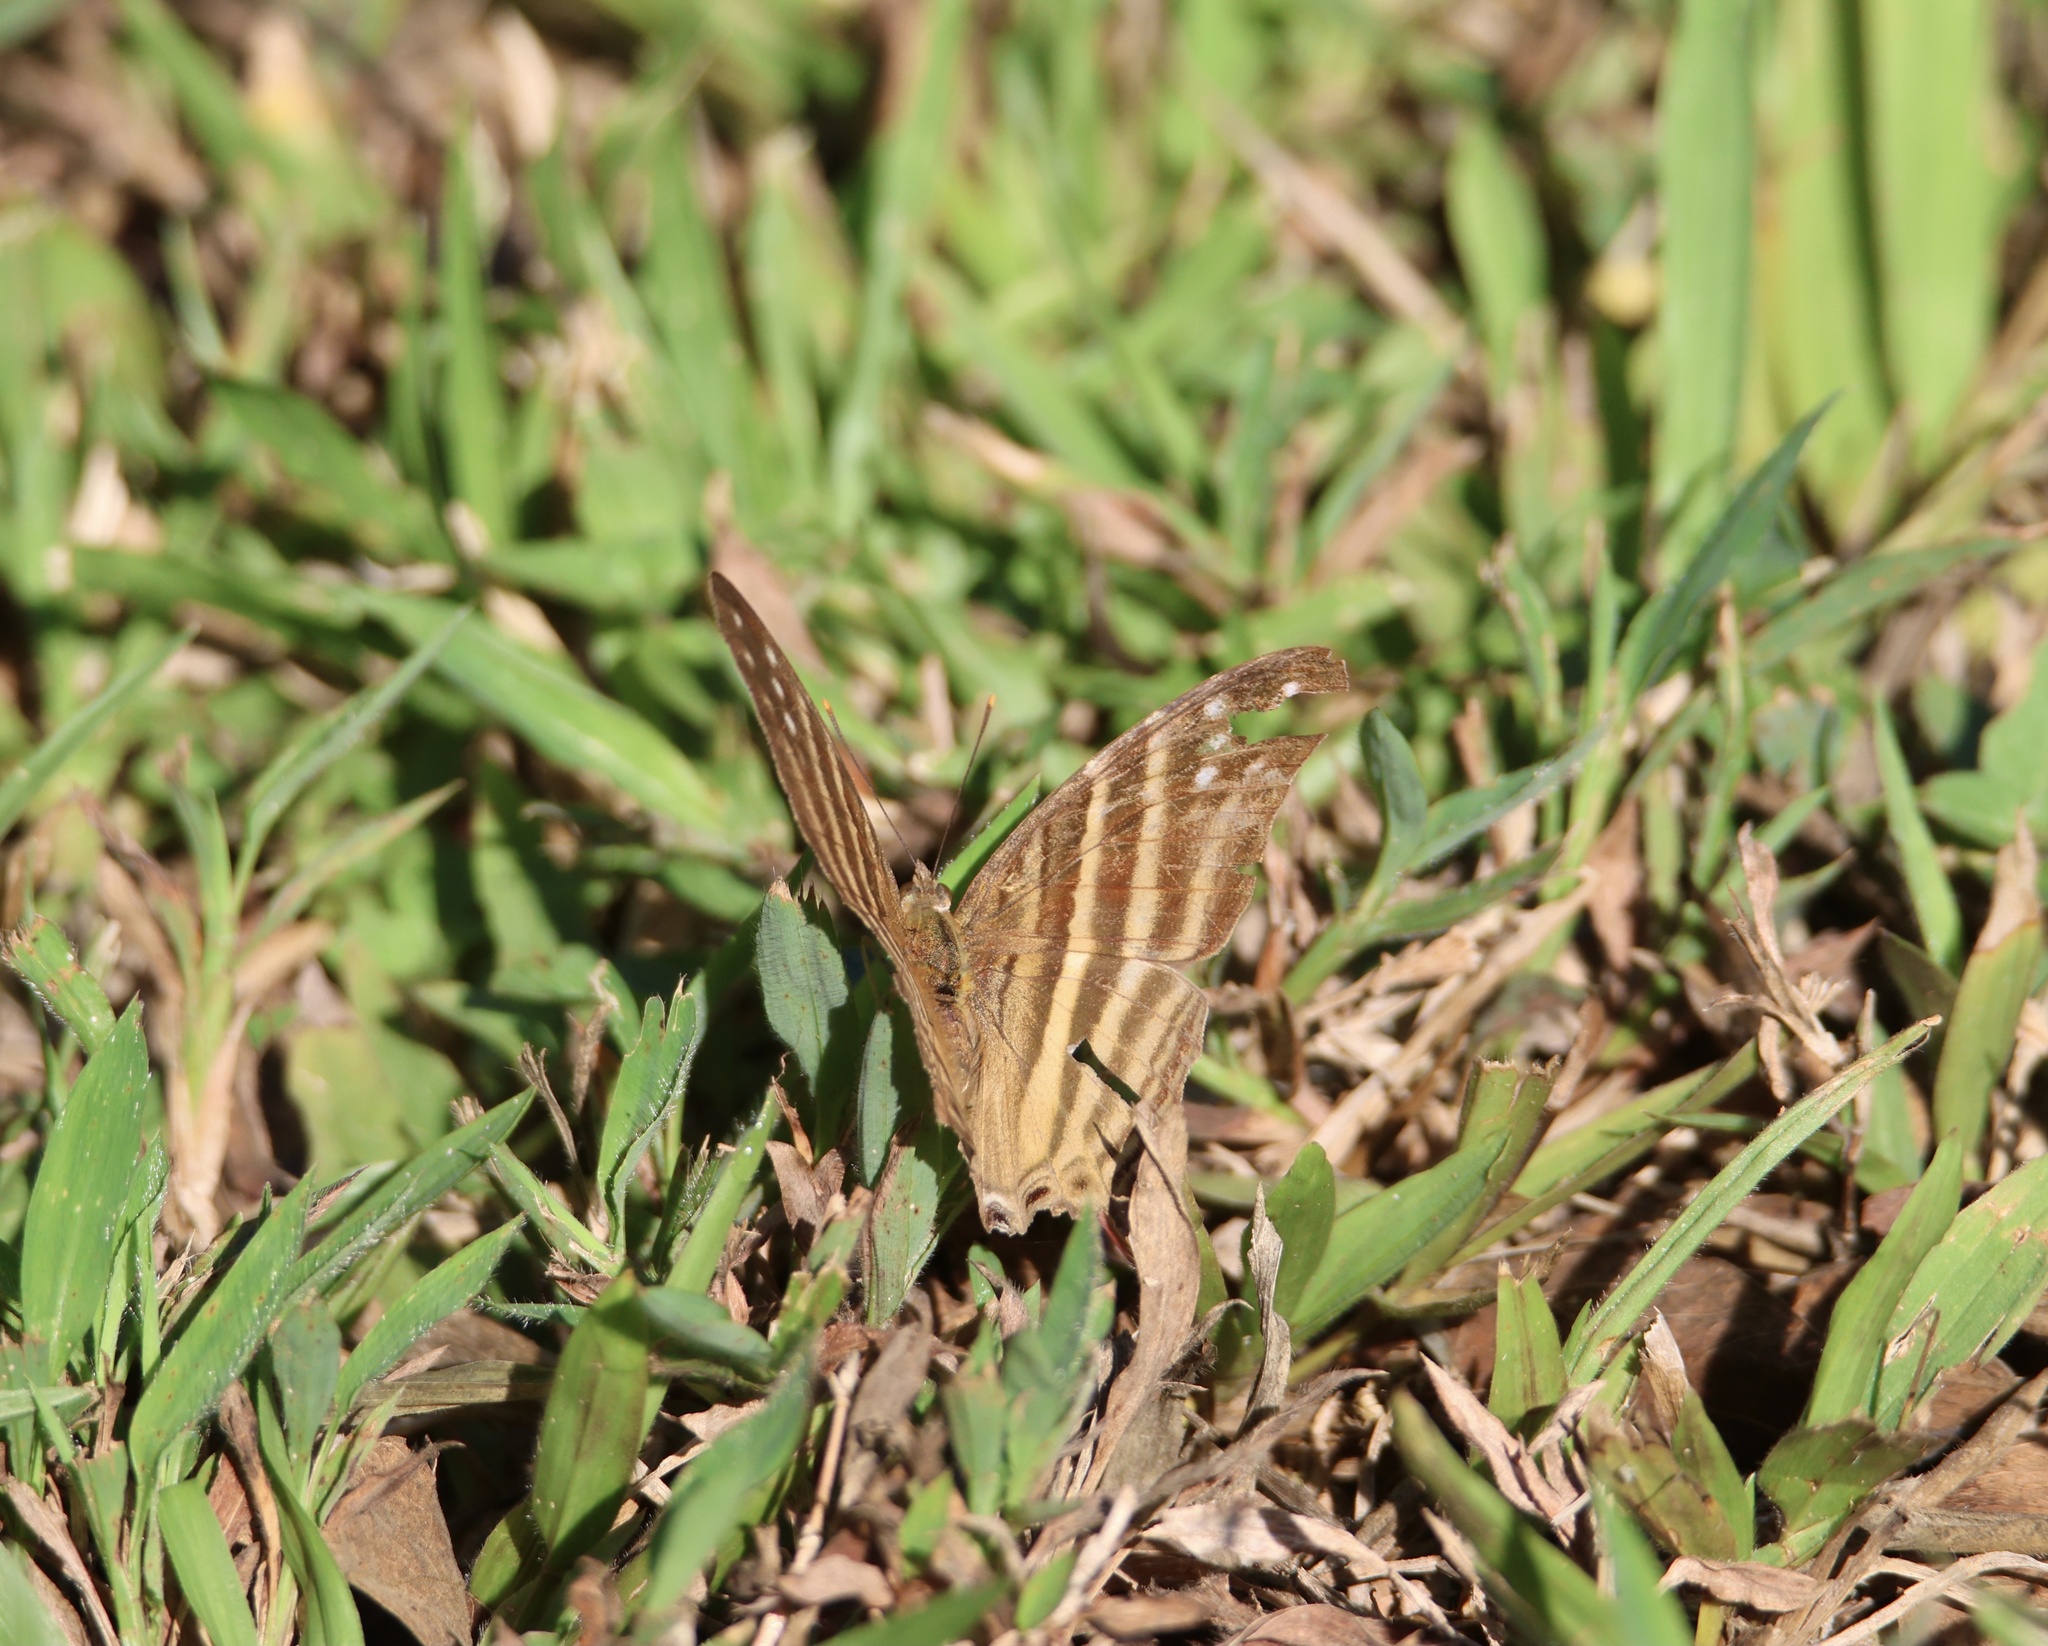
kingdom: Animalia
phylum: Arthropoda
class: Insecta
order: Lepidoptera
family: Nymphalidae
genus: Marpesia
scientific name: Marpesia chiron
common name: Many-banded daggerwing
